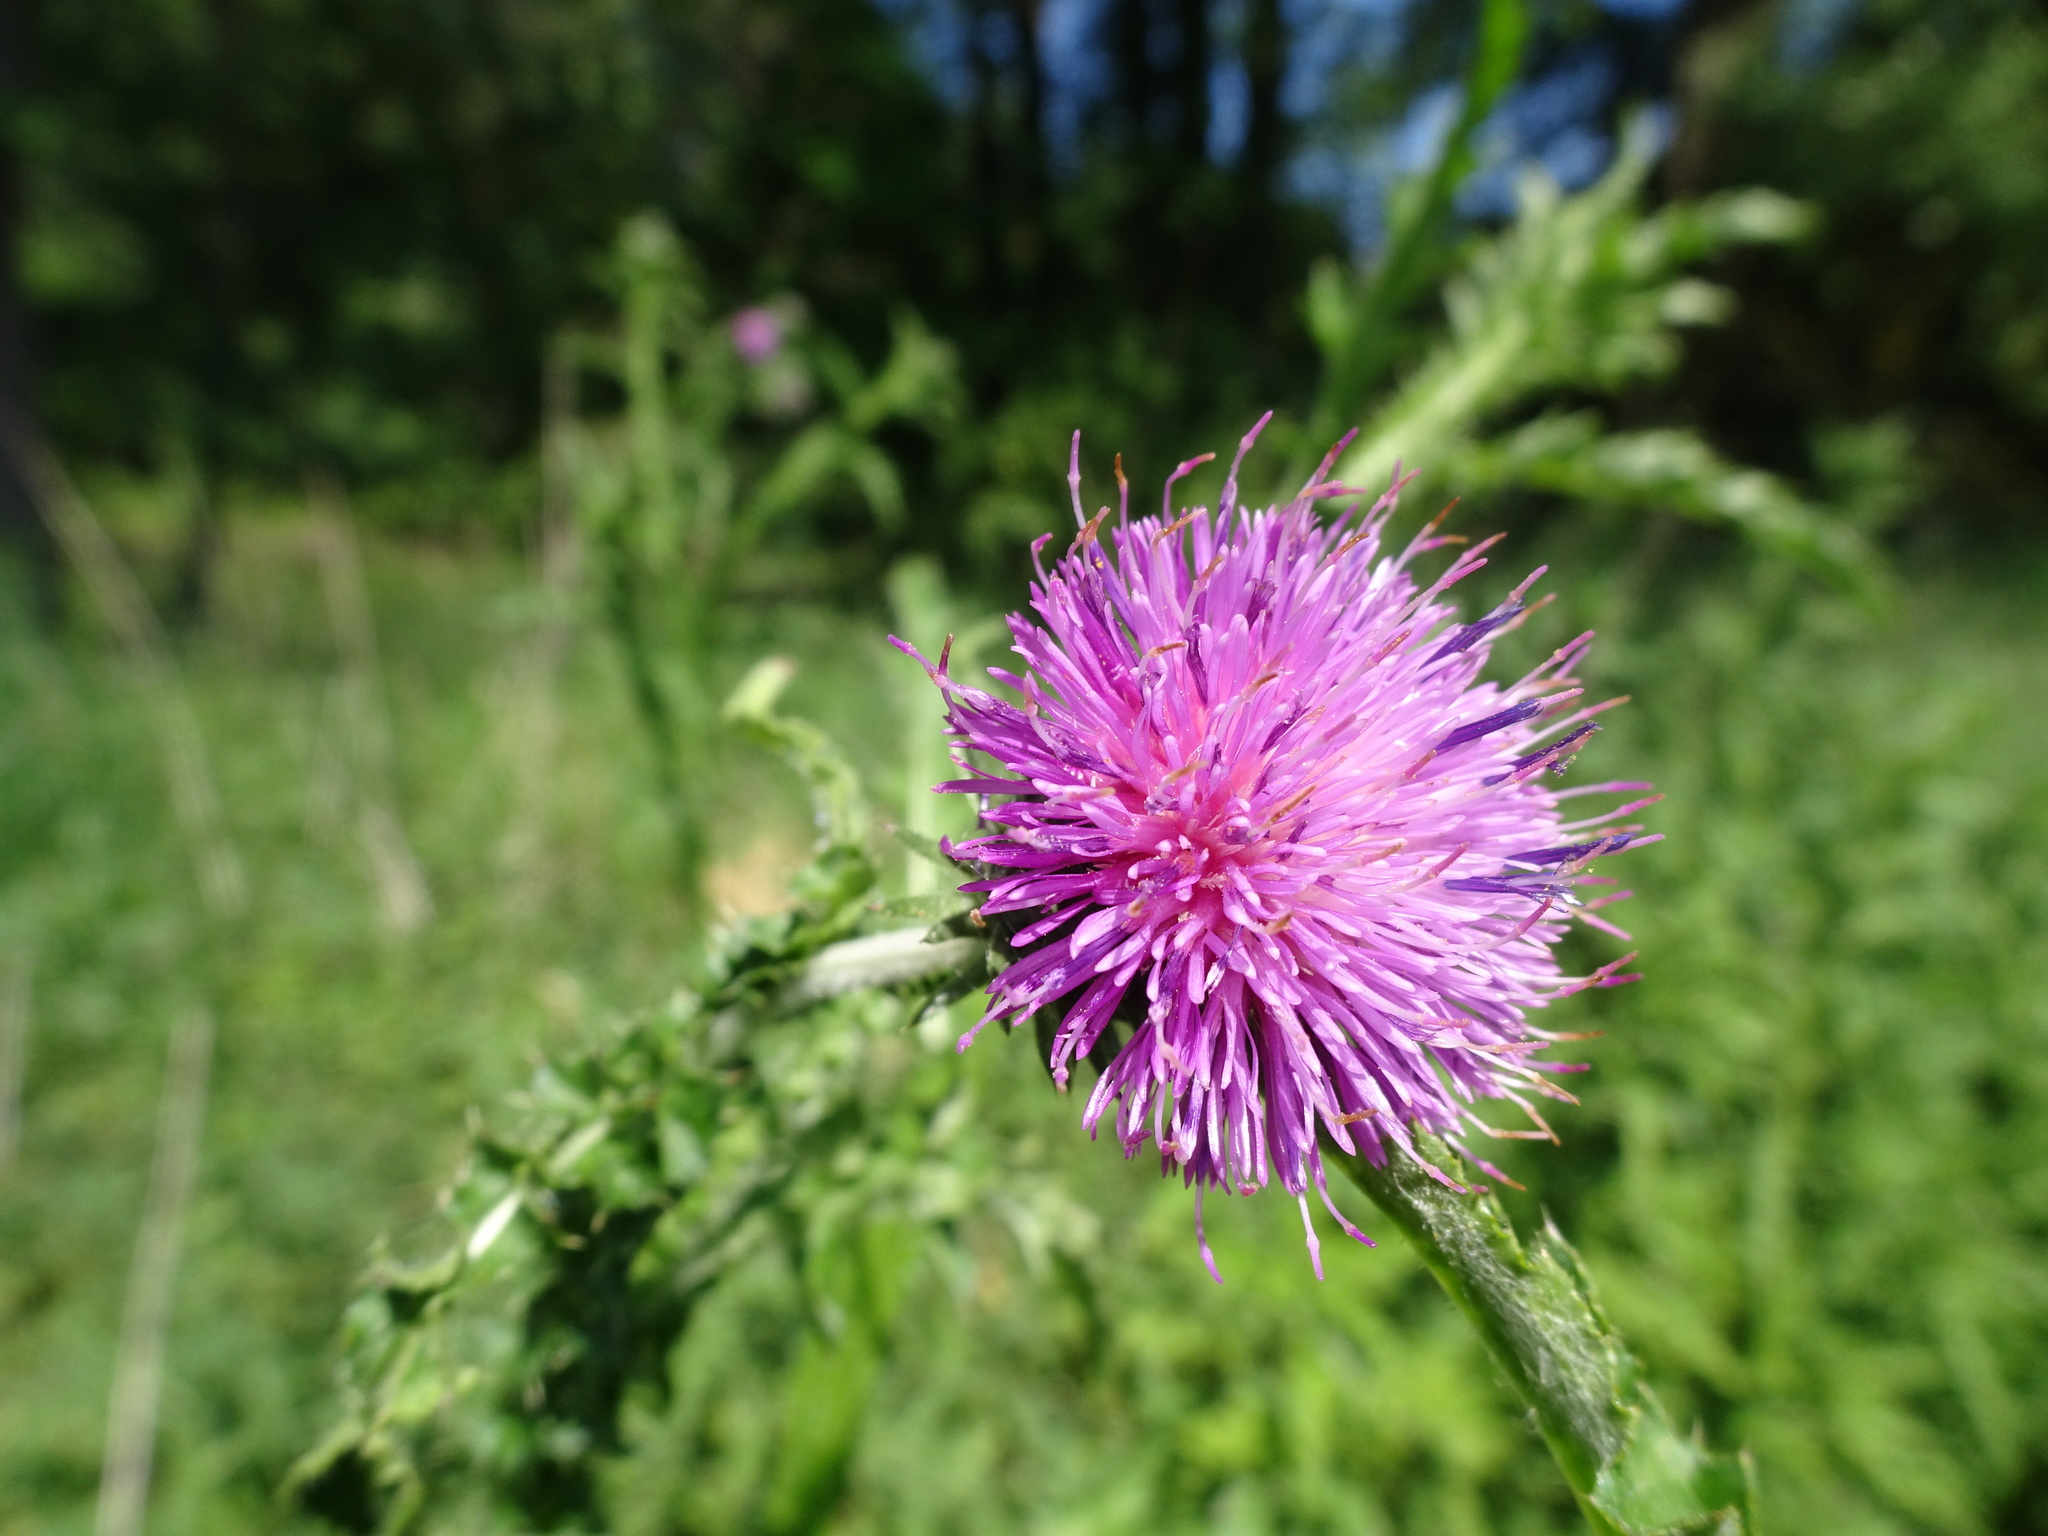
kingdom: Plantae
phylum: Tracheophyta
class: Magnoliopsida
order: Asterales
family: Asteraceae
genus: Carduus
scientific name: Carduus crispus
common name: Welted thistle
